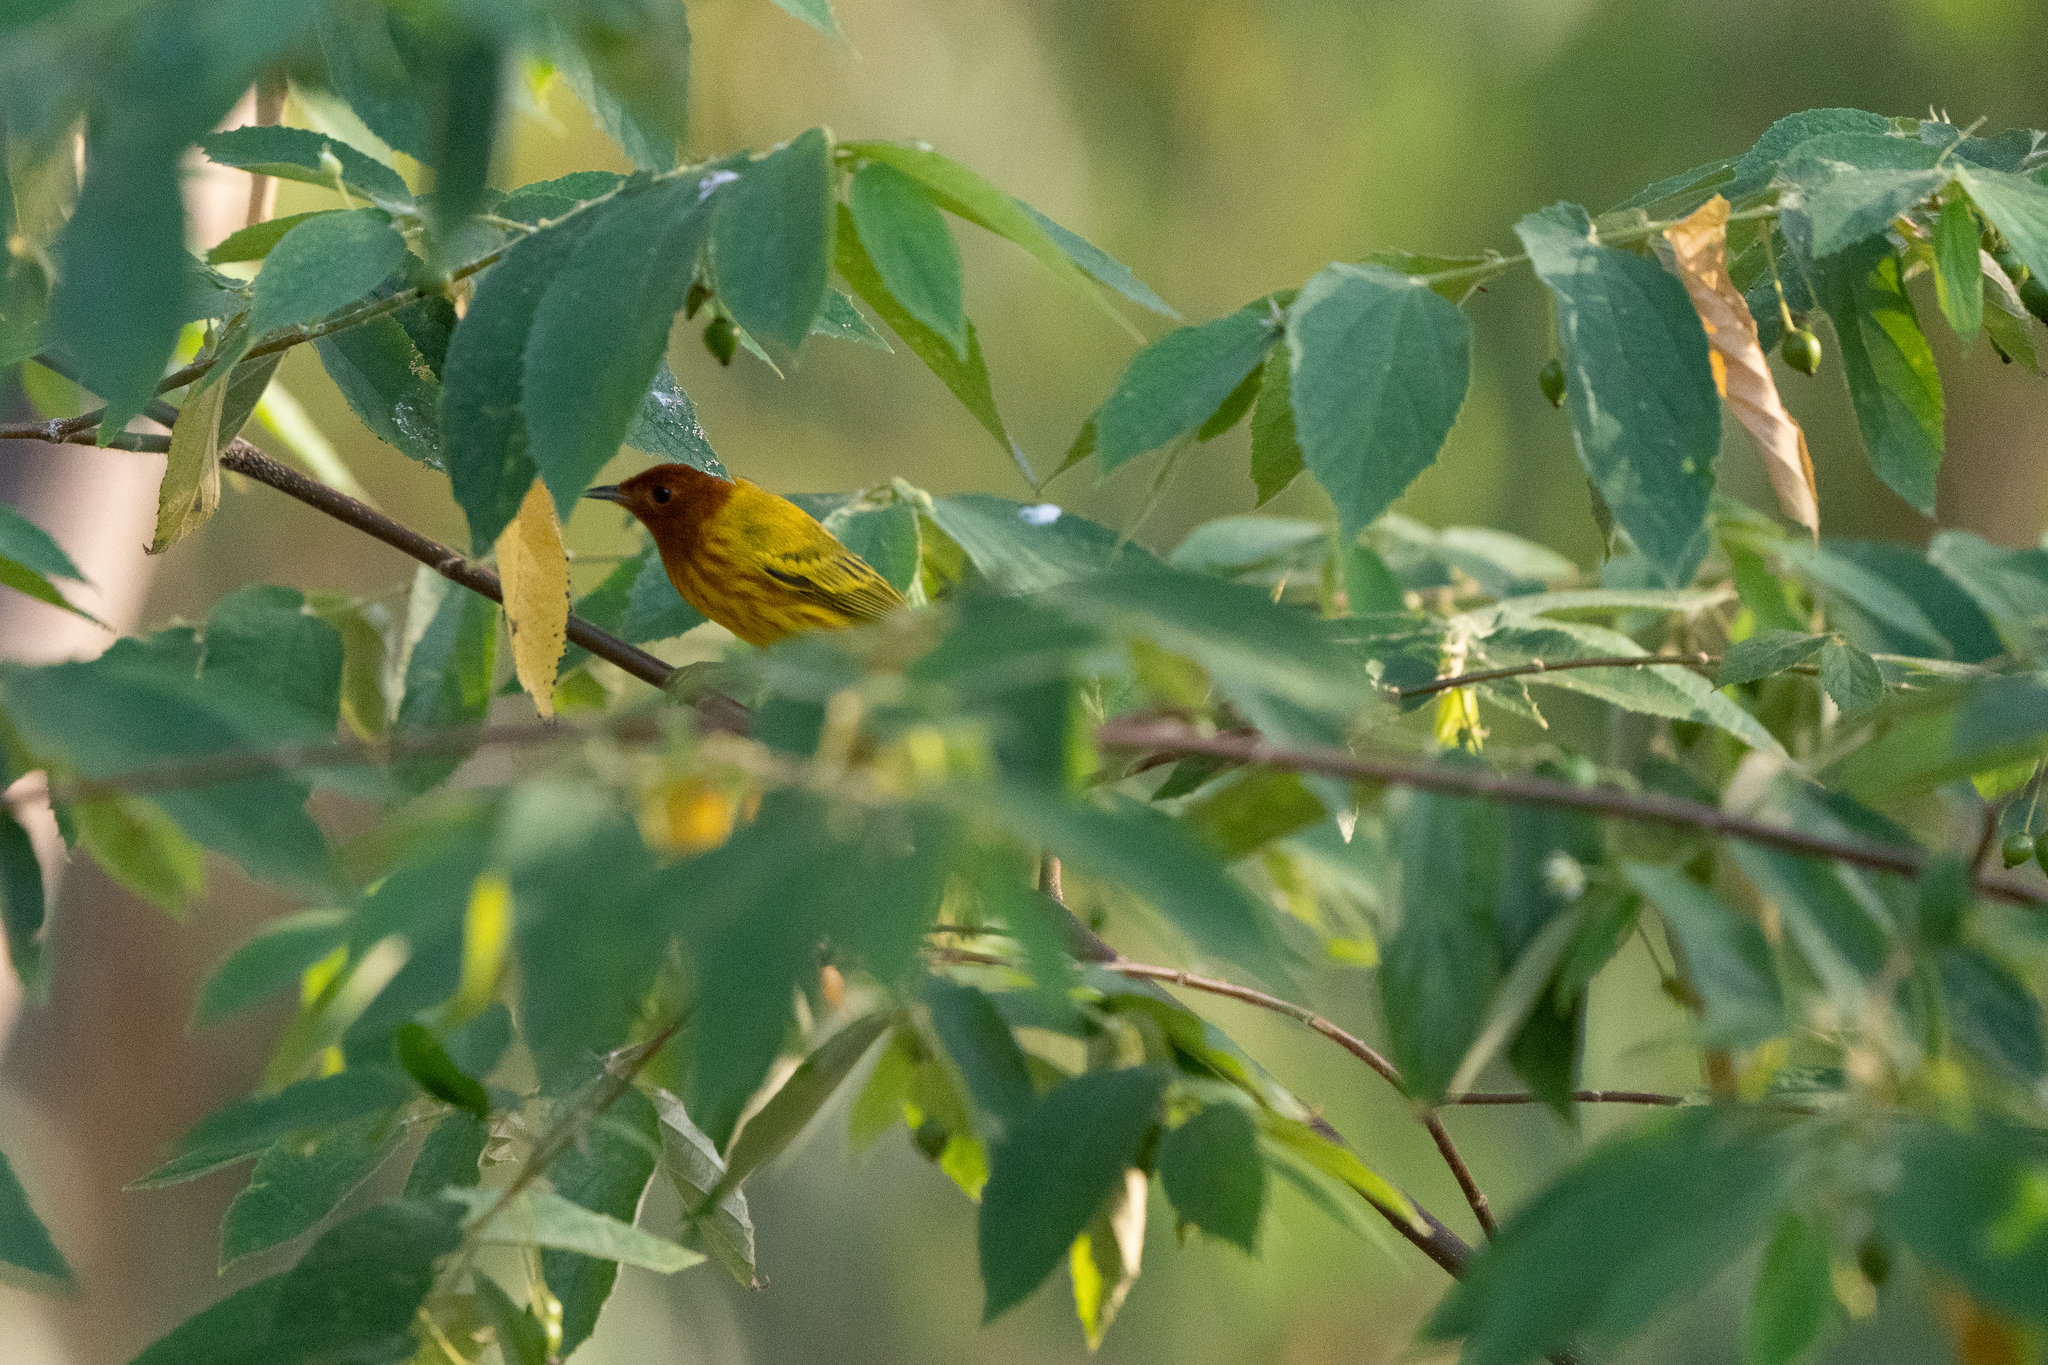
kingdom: Animalia
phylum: Chordata
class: Aves
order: Passeriformes
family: Parulidae
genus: Setophaga
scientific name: Setophaga petechia
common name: Yellow warbler
